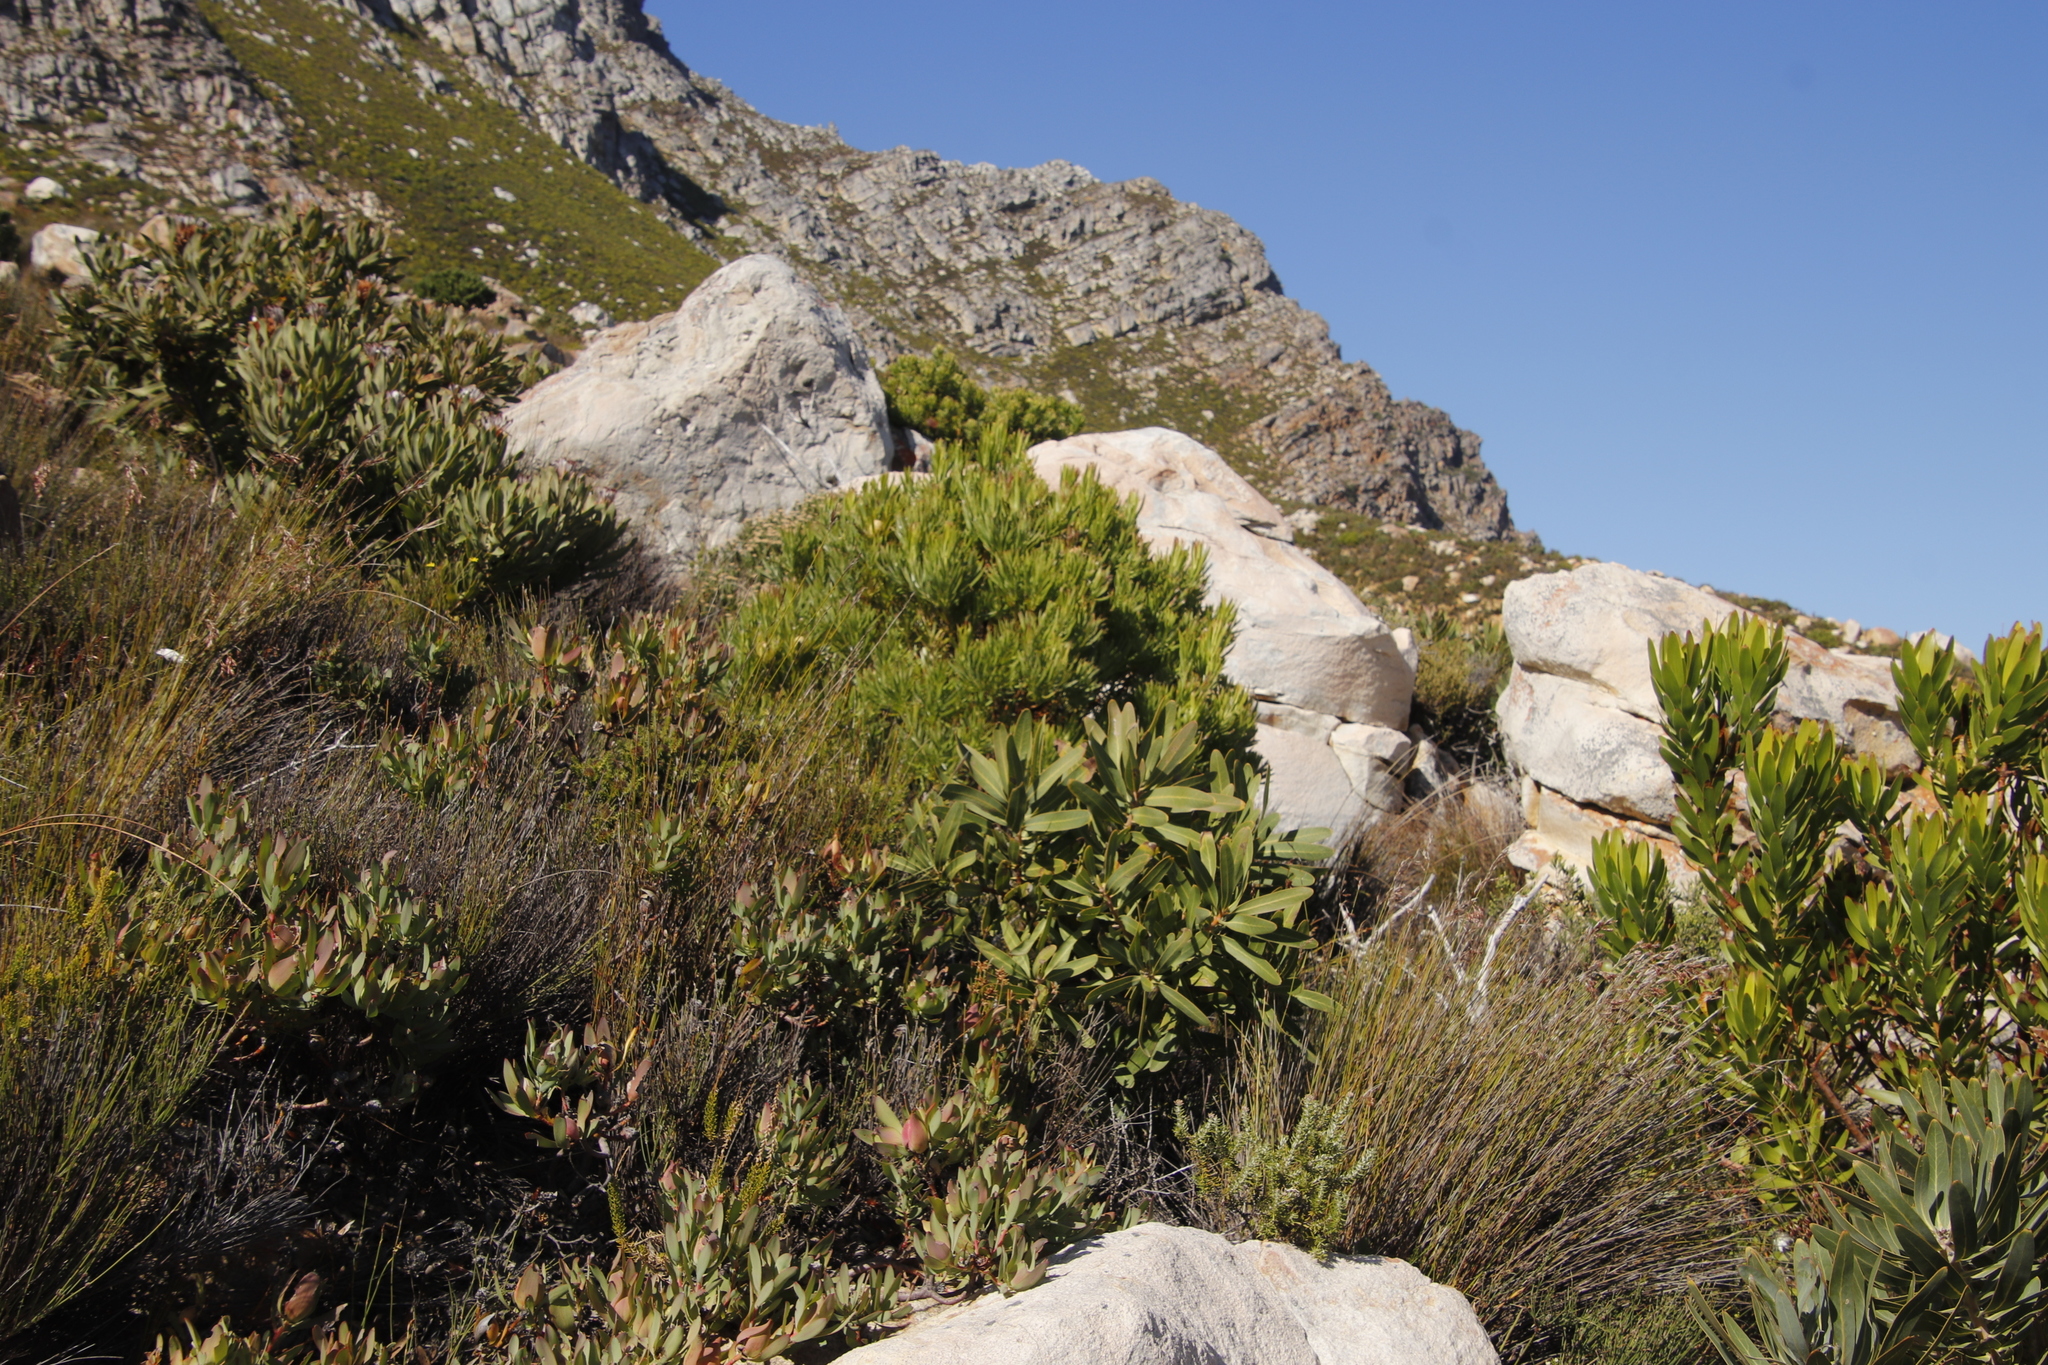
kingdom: Plantae
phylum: Tracheophyta
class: Magnoliopsida
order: Proteales
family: Proteaceae
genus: Protea
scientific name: Protea laurifolia
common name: Grey-leaf sugarbsh
